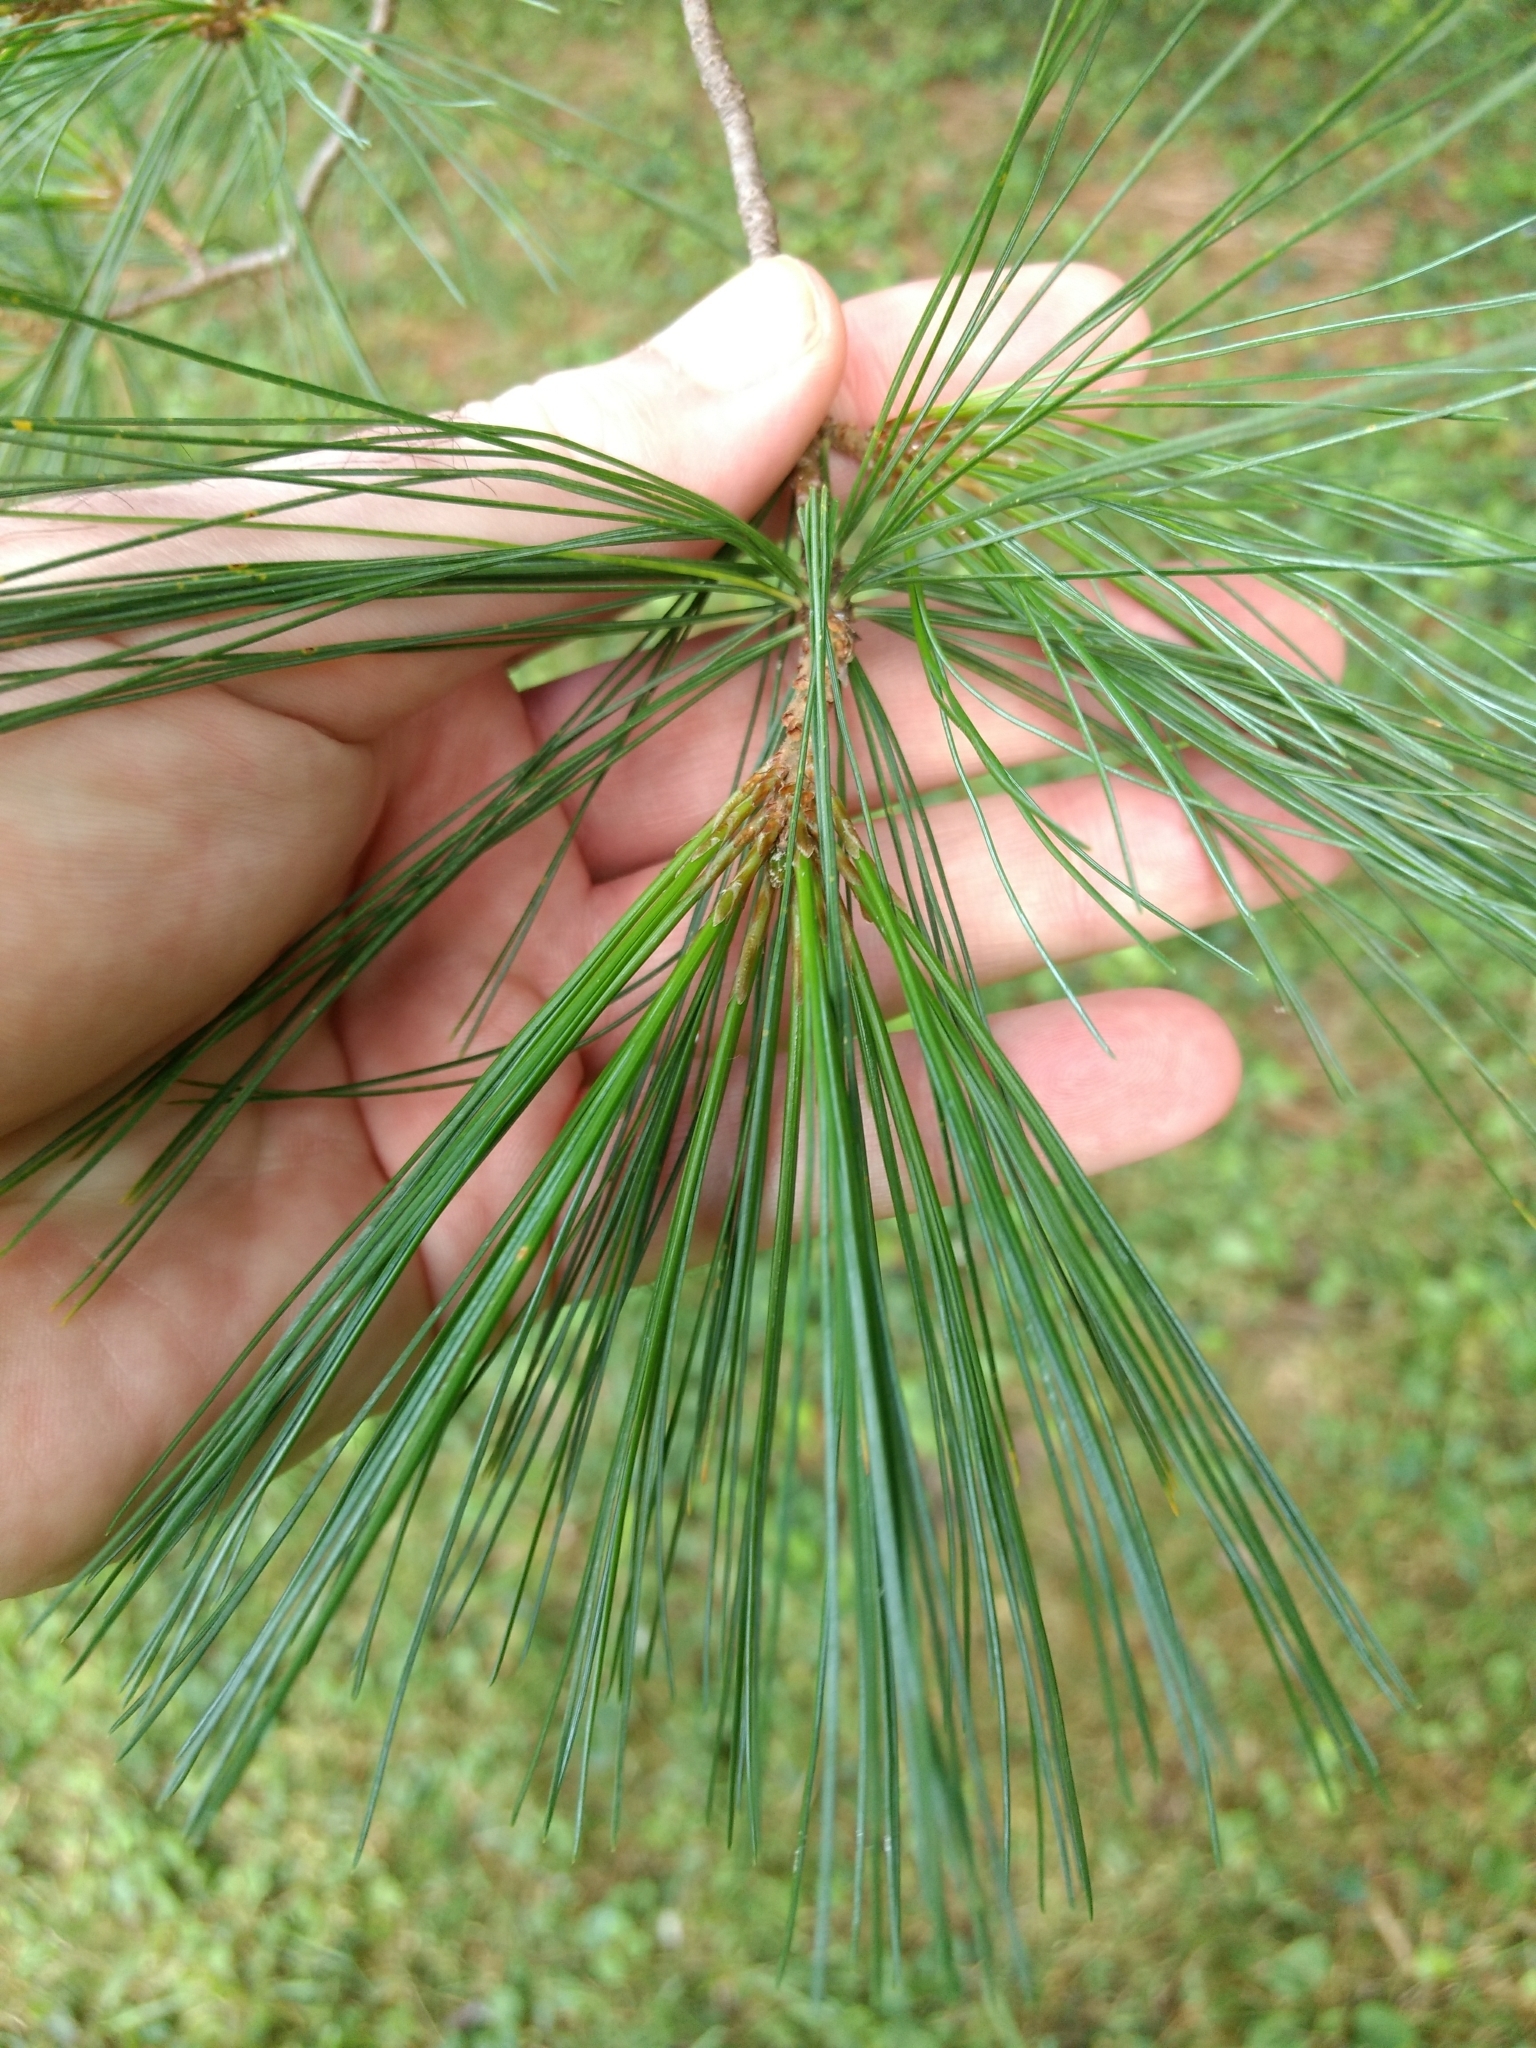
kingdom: Plantae
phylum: Tracheophyta
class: Pinopsida
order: Pinales
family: Pinaceae
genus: Pinus
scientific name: Pinus strobus
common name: Weymouth pine
